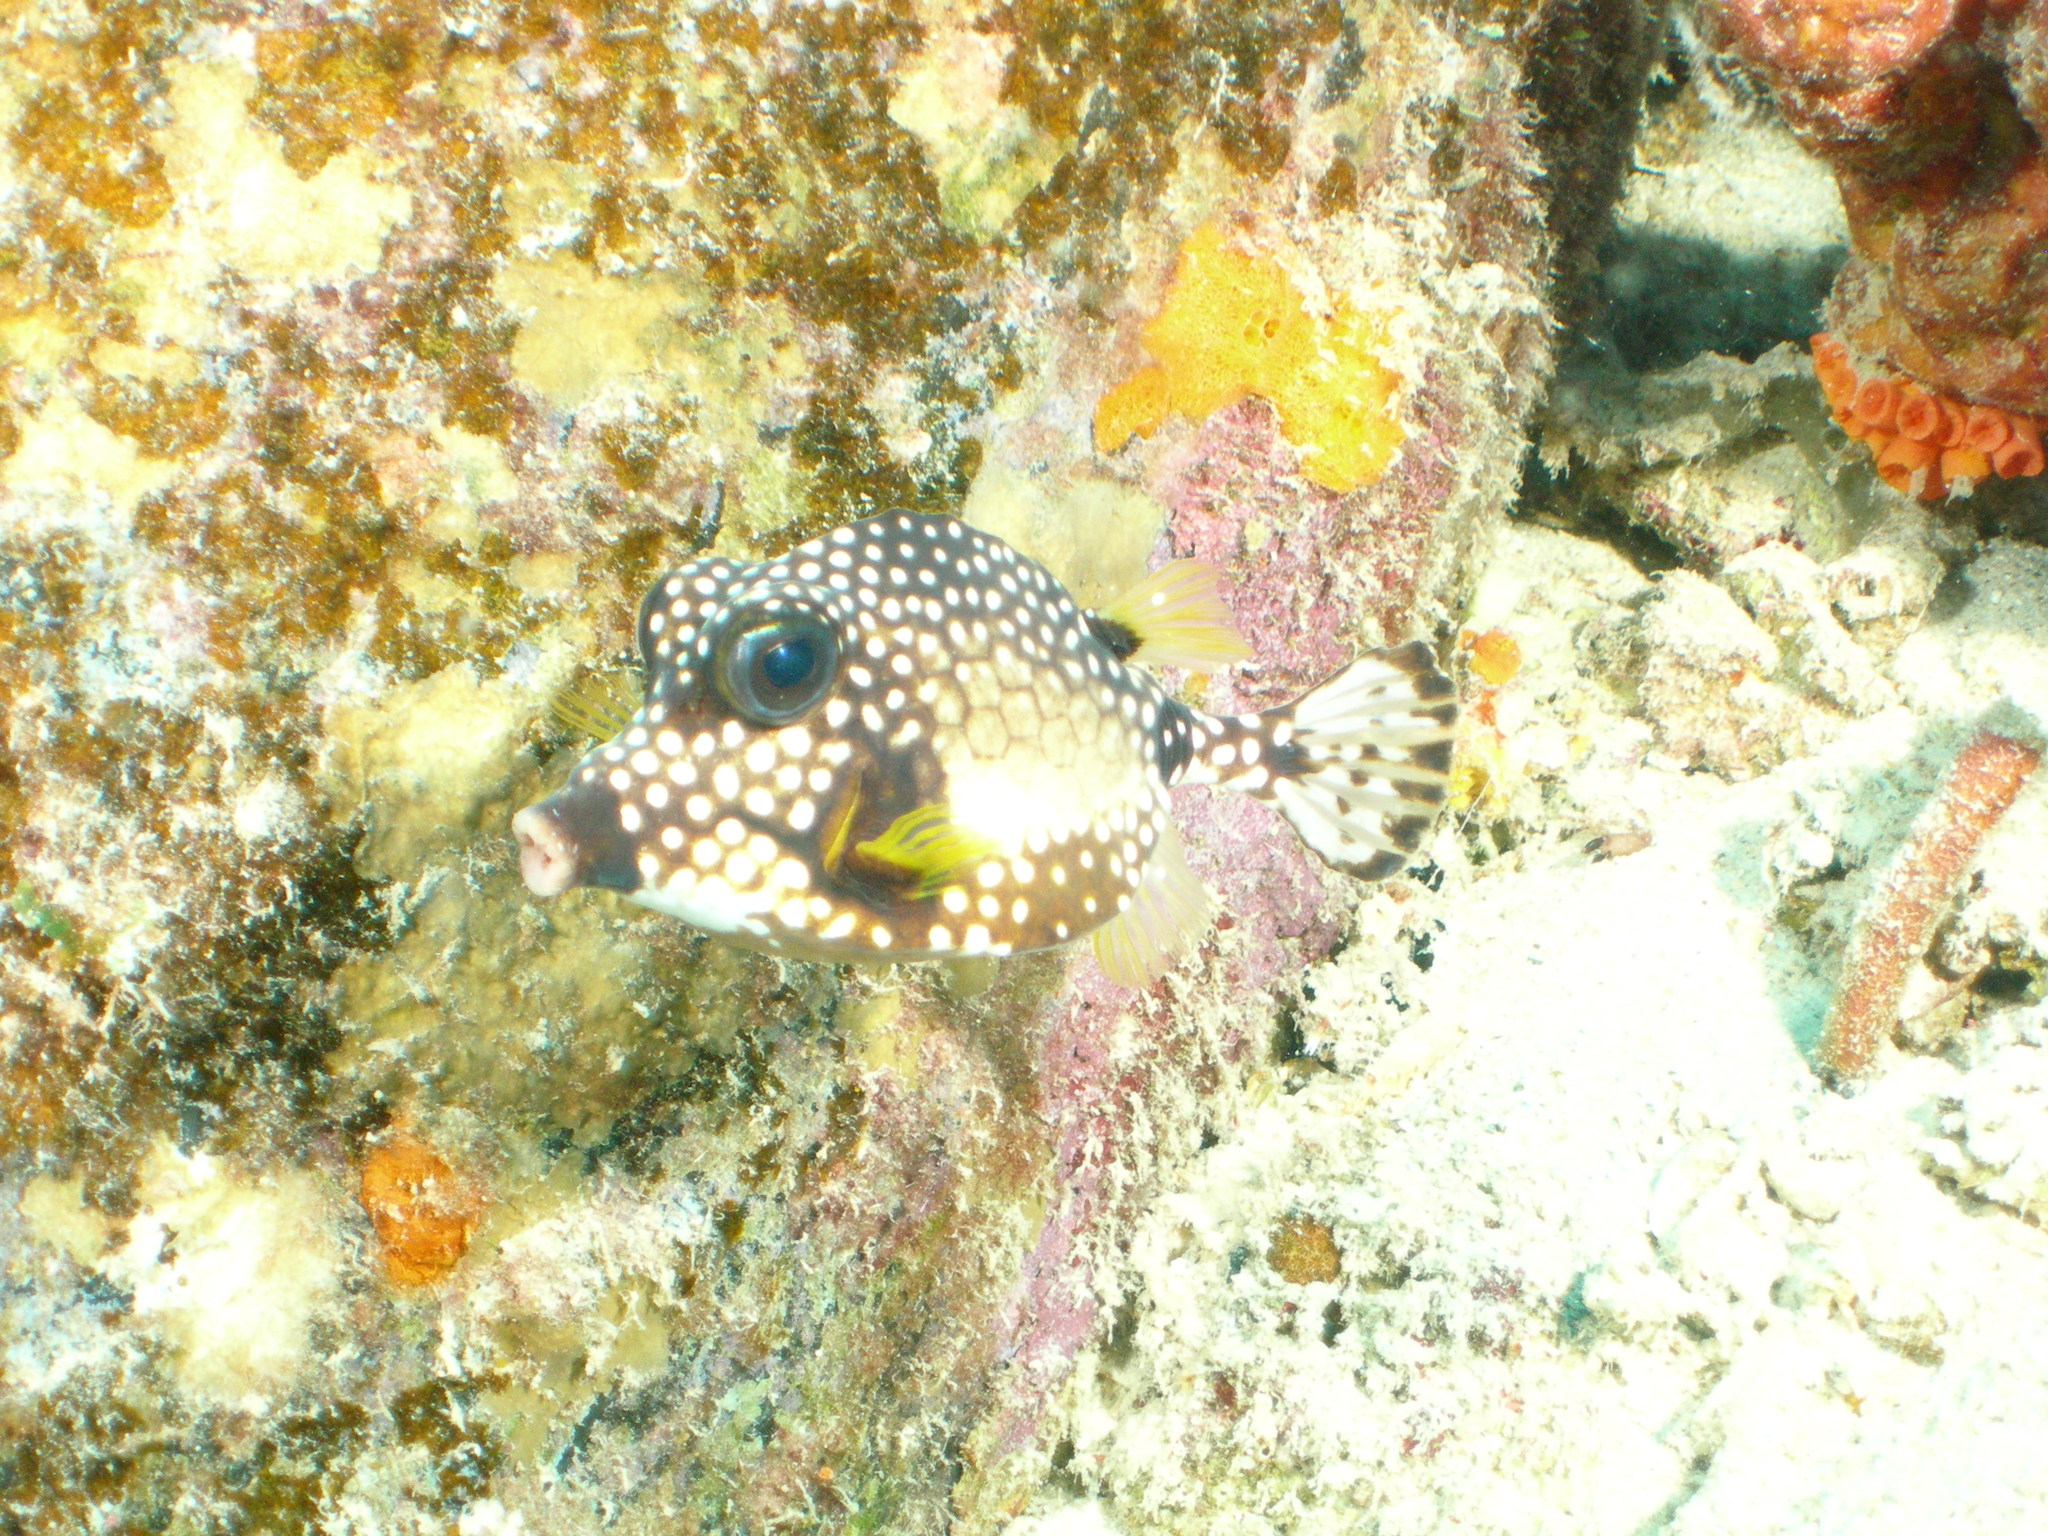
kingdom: Animalia
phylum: Chordata
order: Tetraodontiformes
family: Ostraciidae
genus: Lactophrys
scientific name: Lactophrys triqueter
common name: Smooth trunkfish
